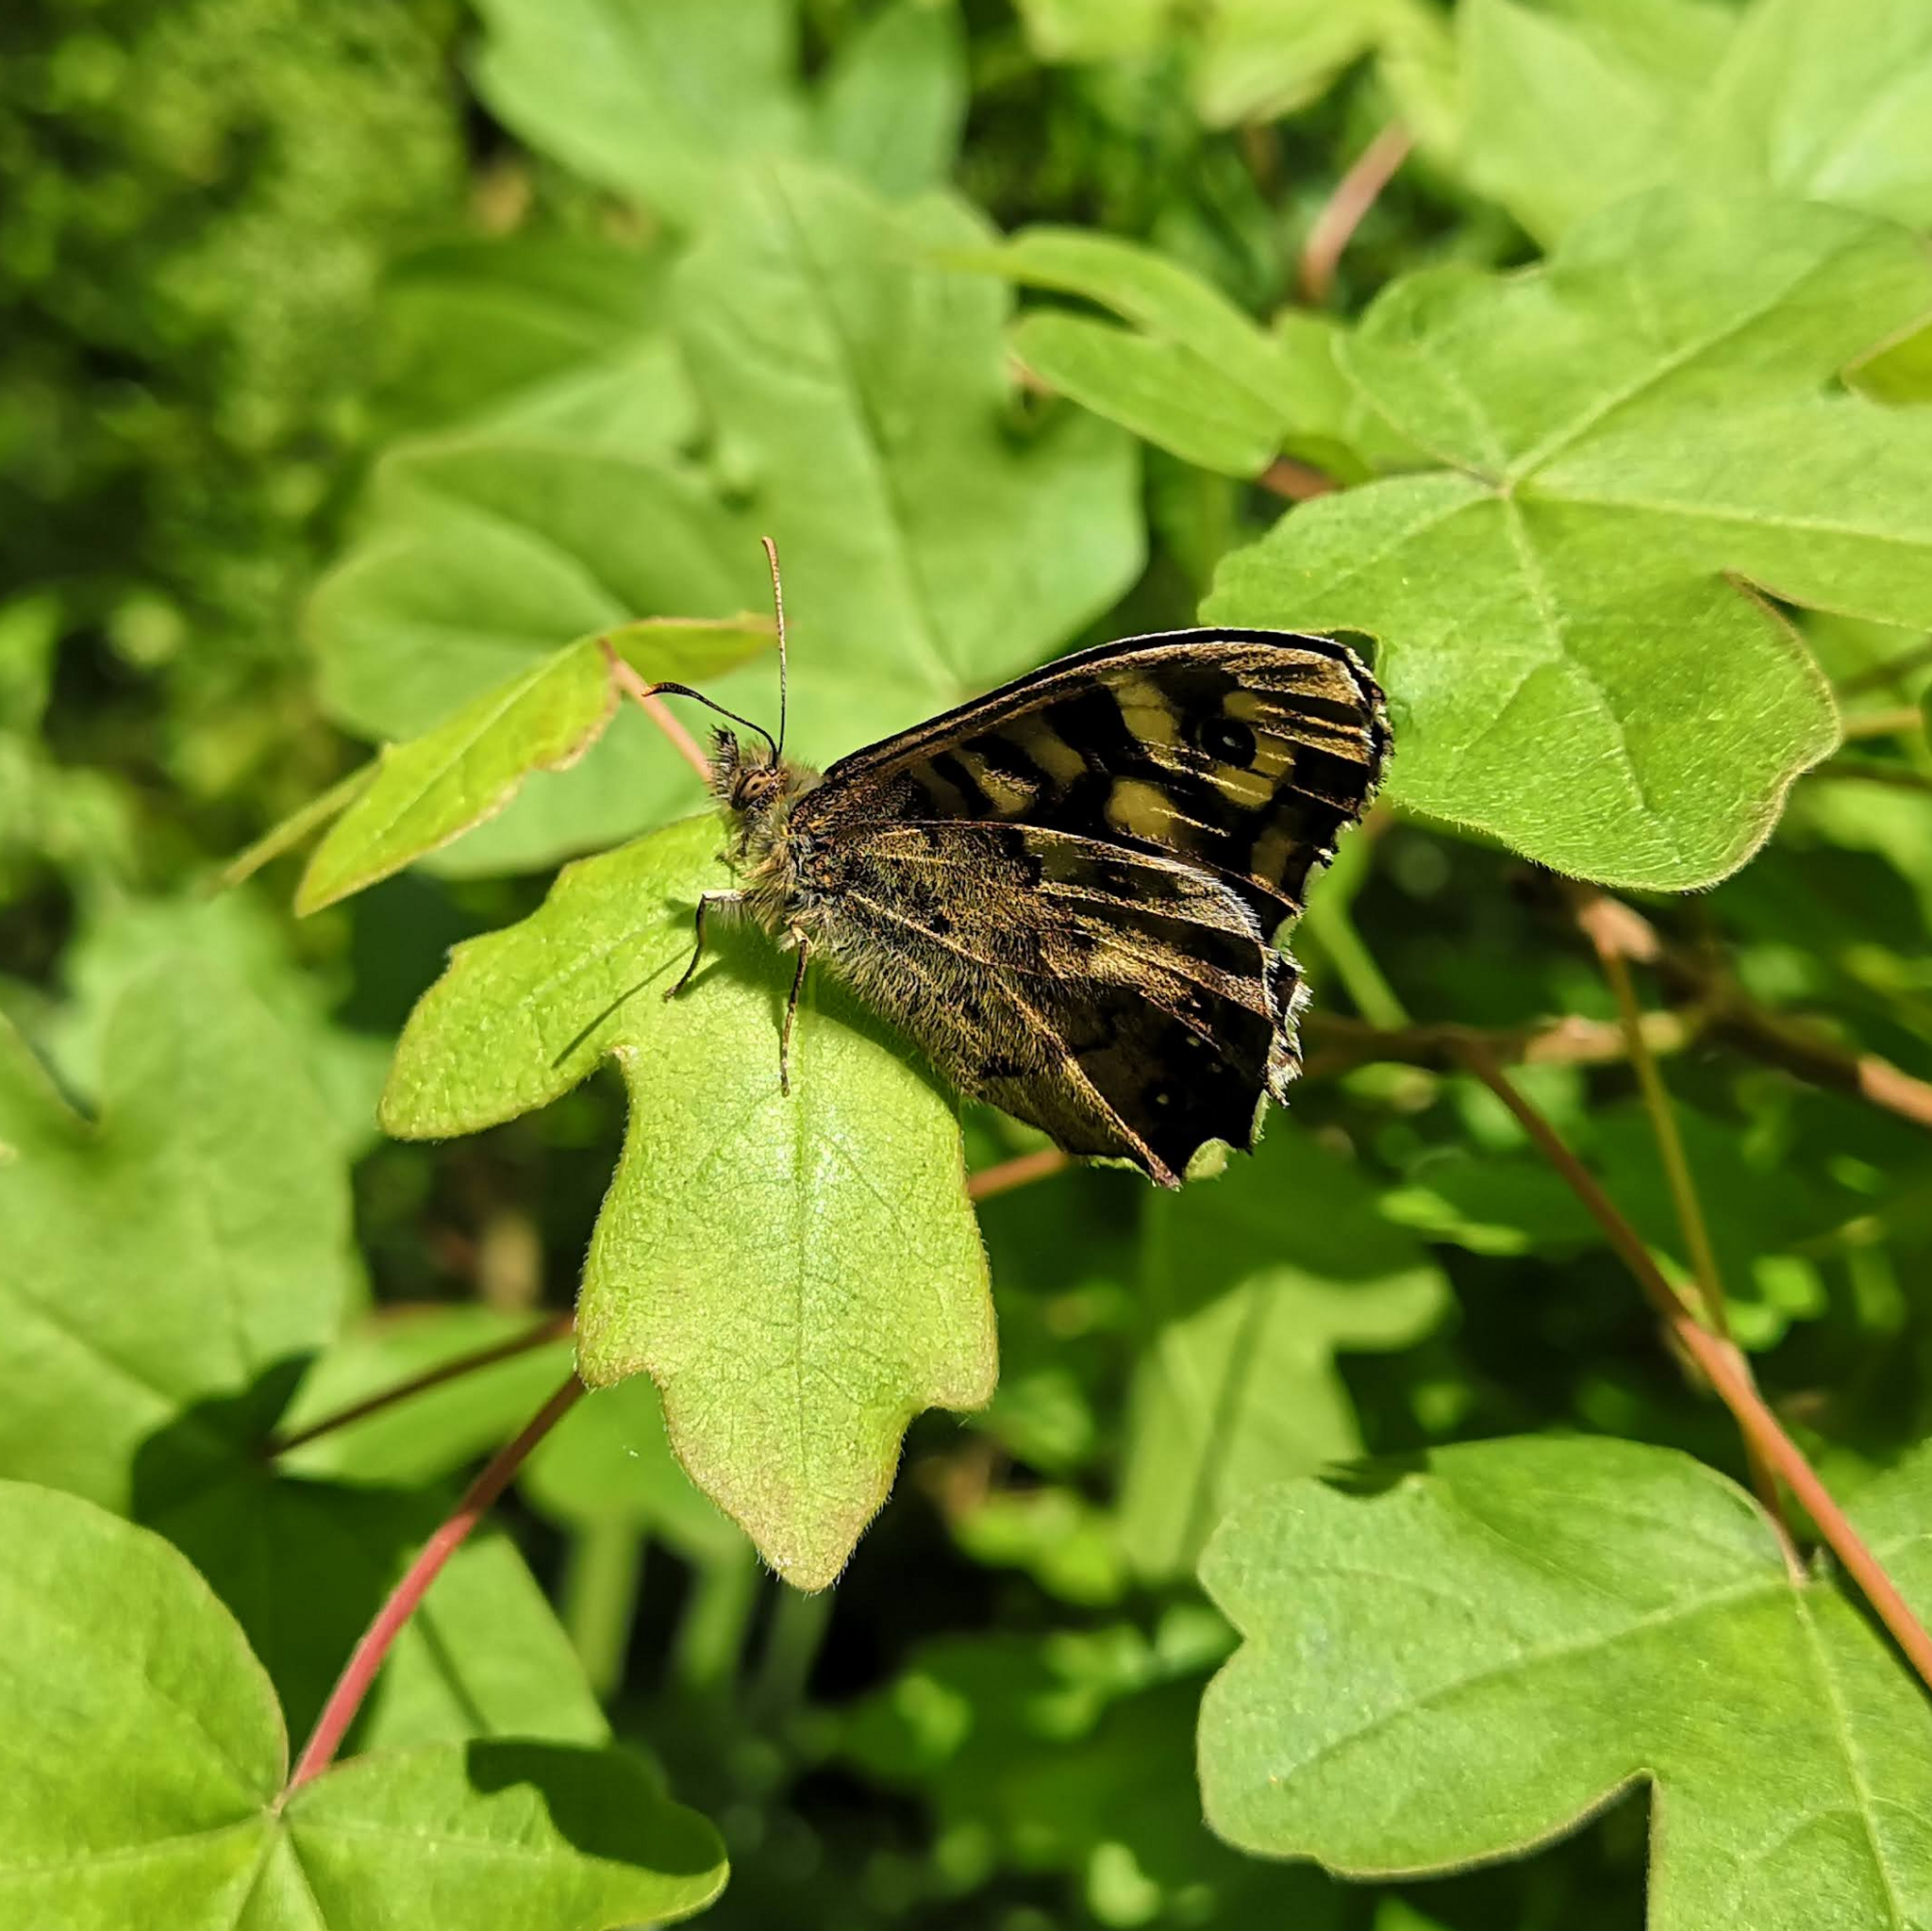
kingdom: Animalia
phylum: Arthropoda
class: Insecta
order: Lepidoptera
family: Nymphalidae
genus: Pararge
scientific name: Pararge aegeria
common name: Speckled wood
